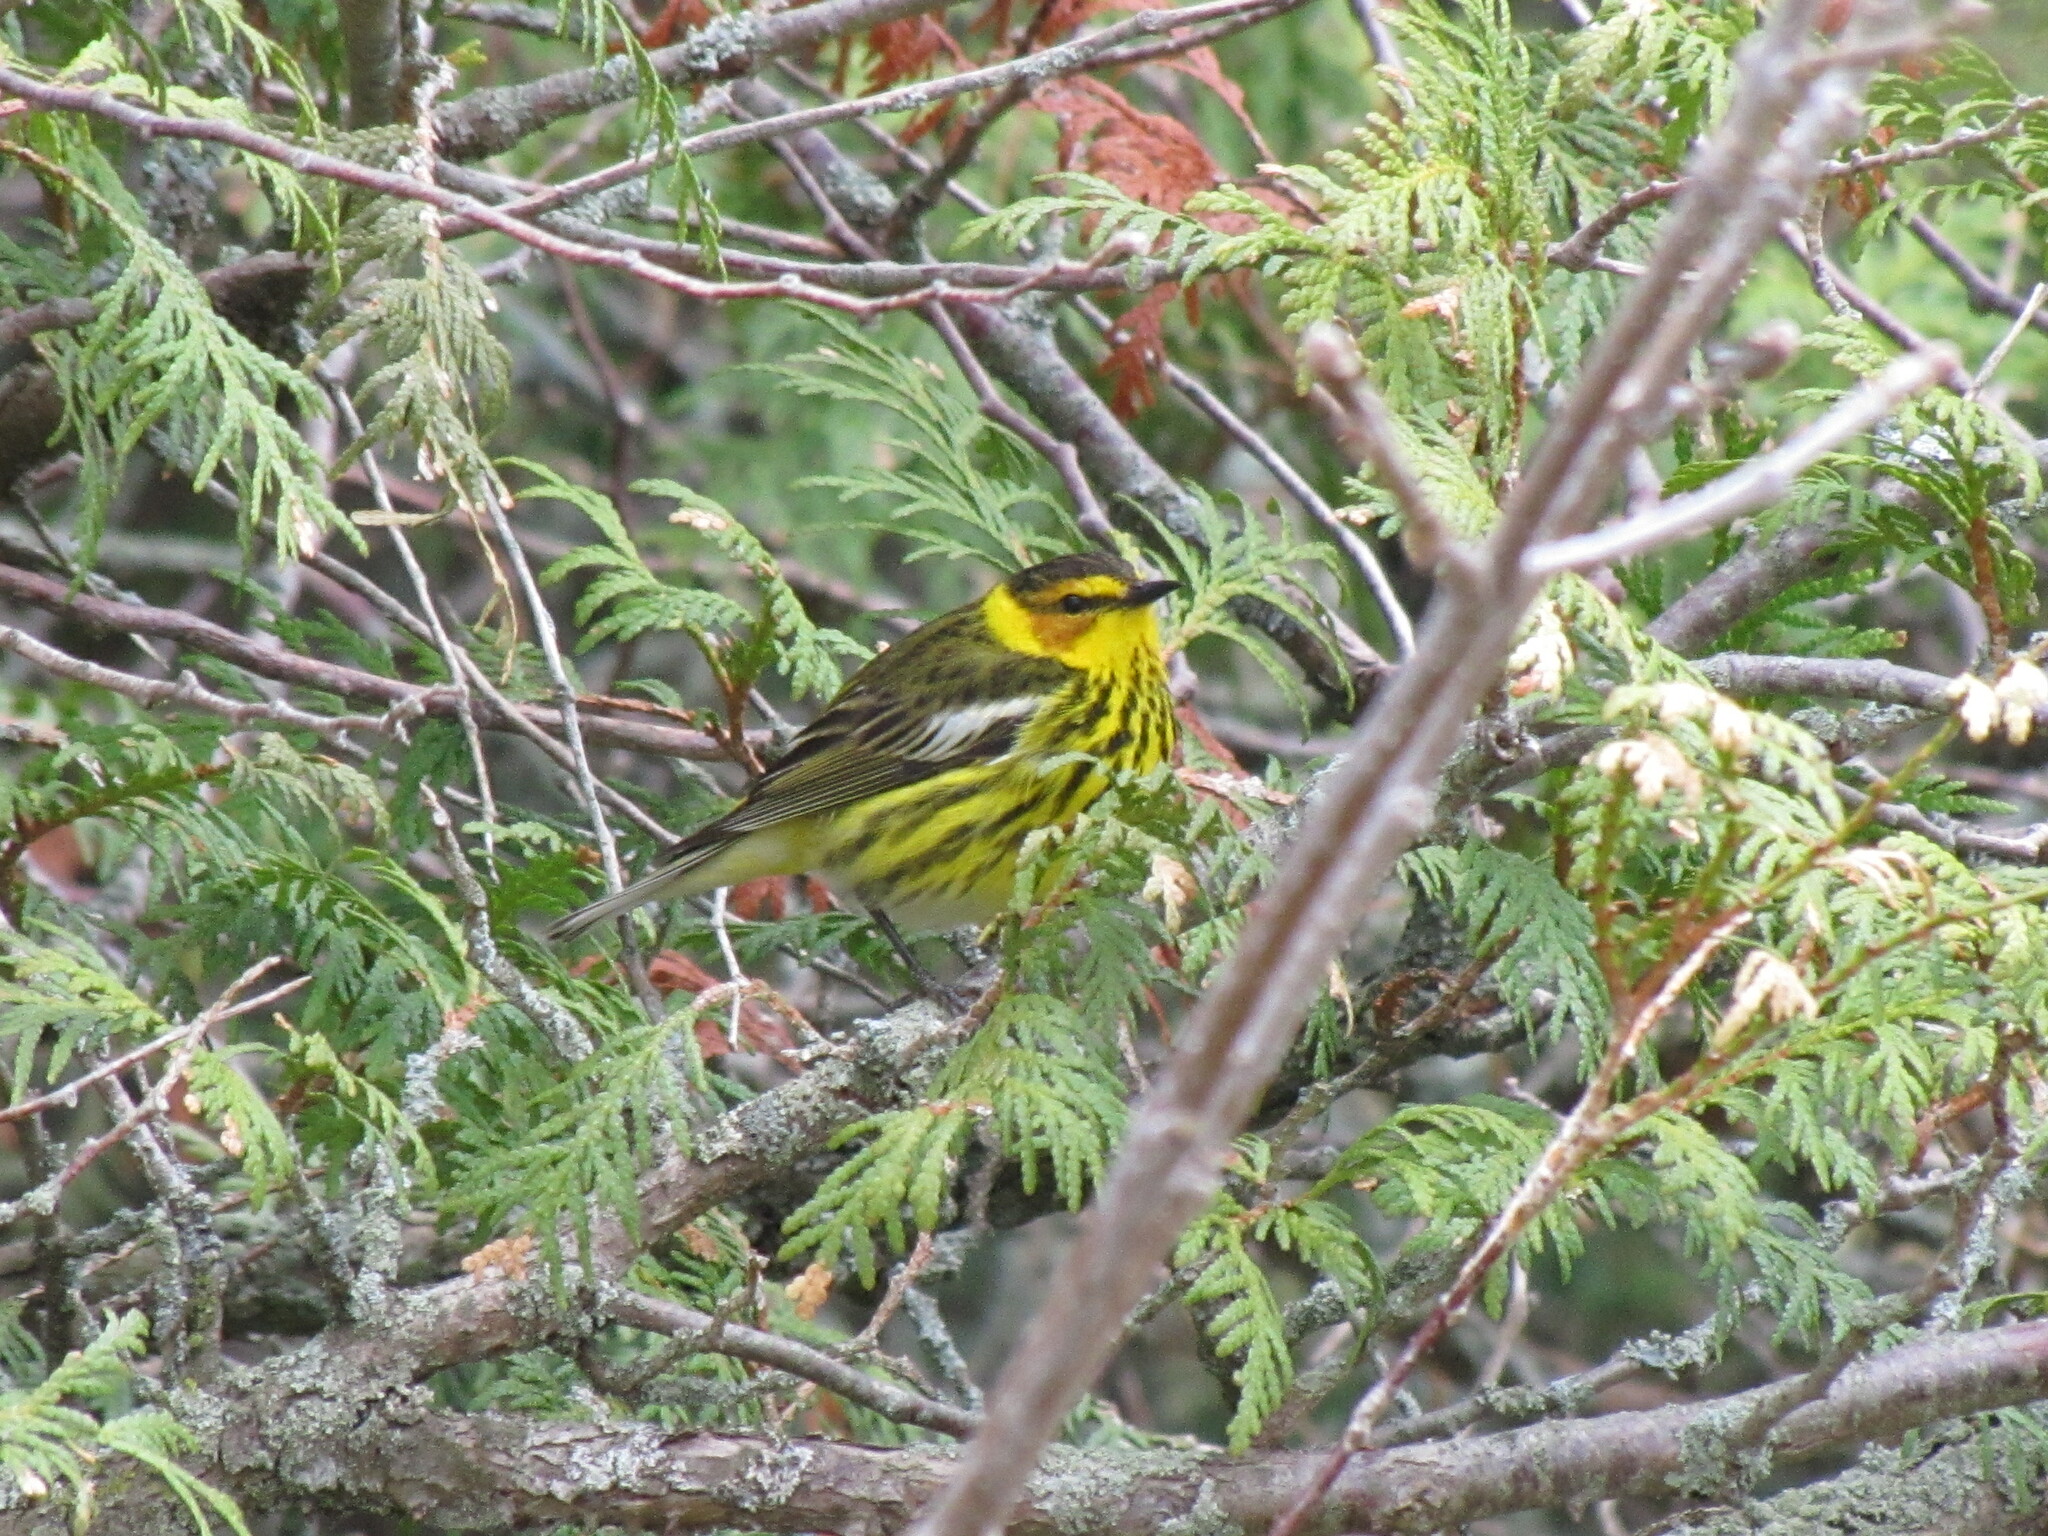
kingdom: Animalia
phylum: Chordata
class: Aves
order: Passeriformes
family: Parulidae
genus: Setophaga
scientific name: Setophaga tigrina
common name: Cape may warbler
